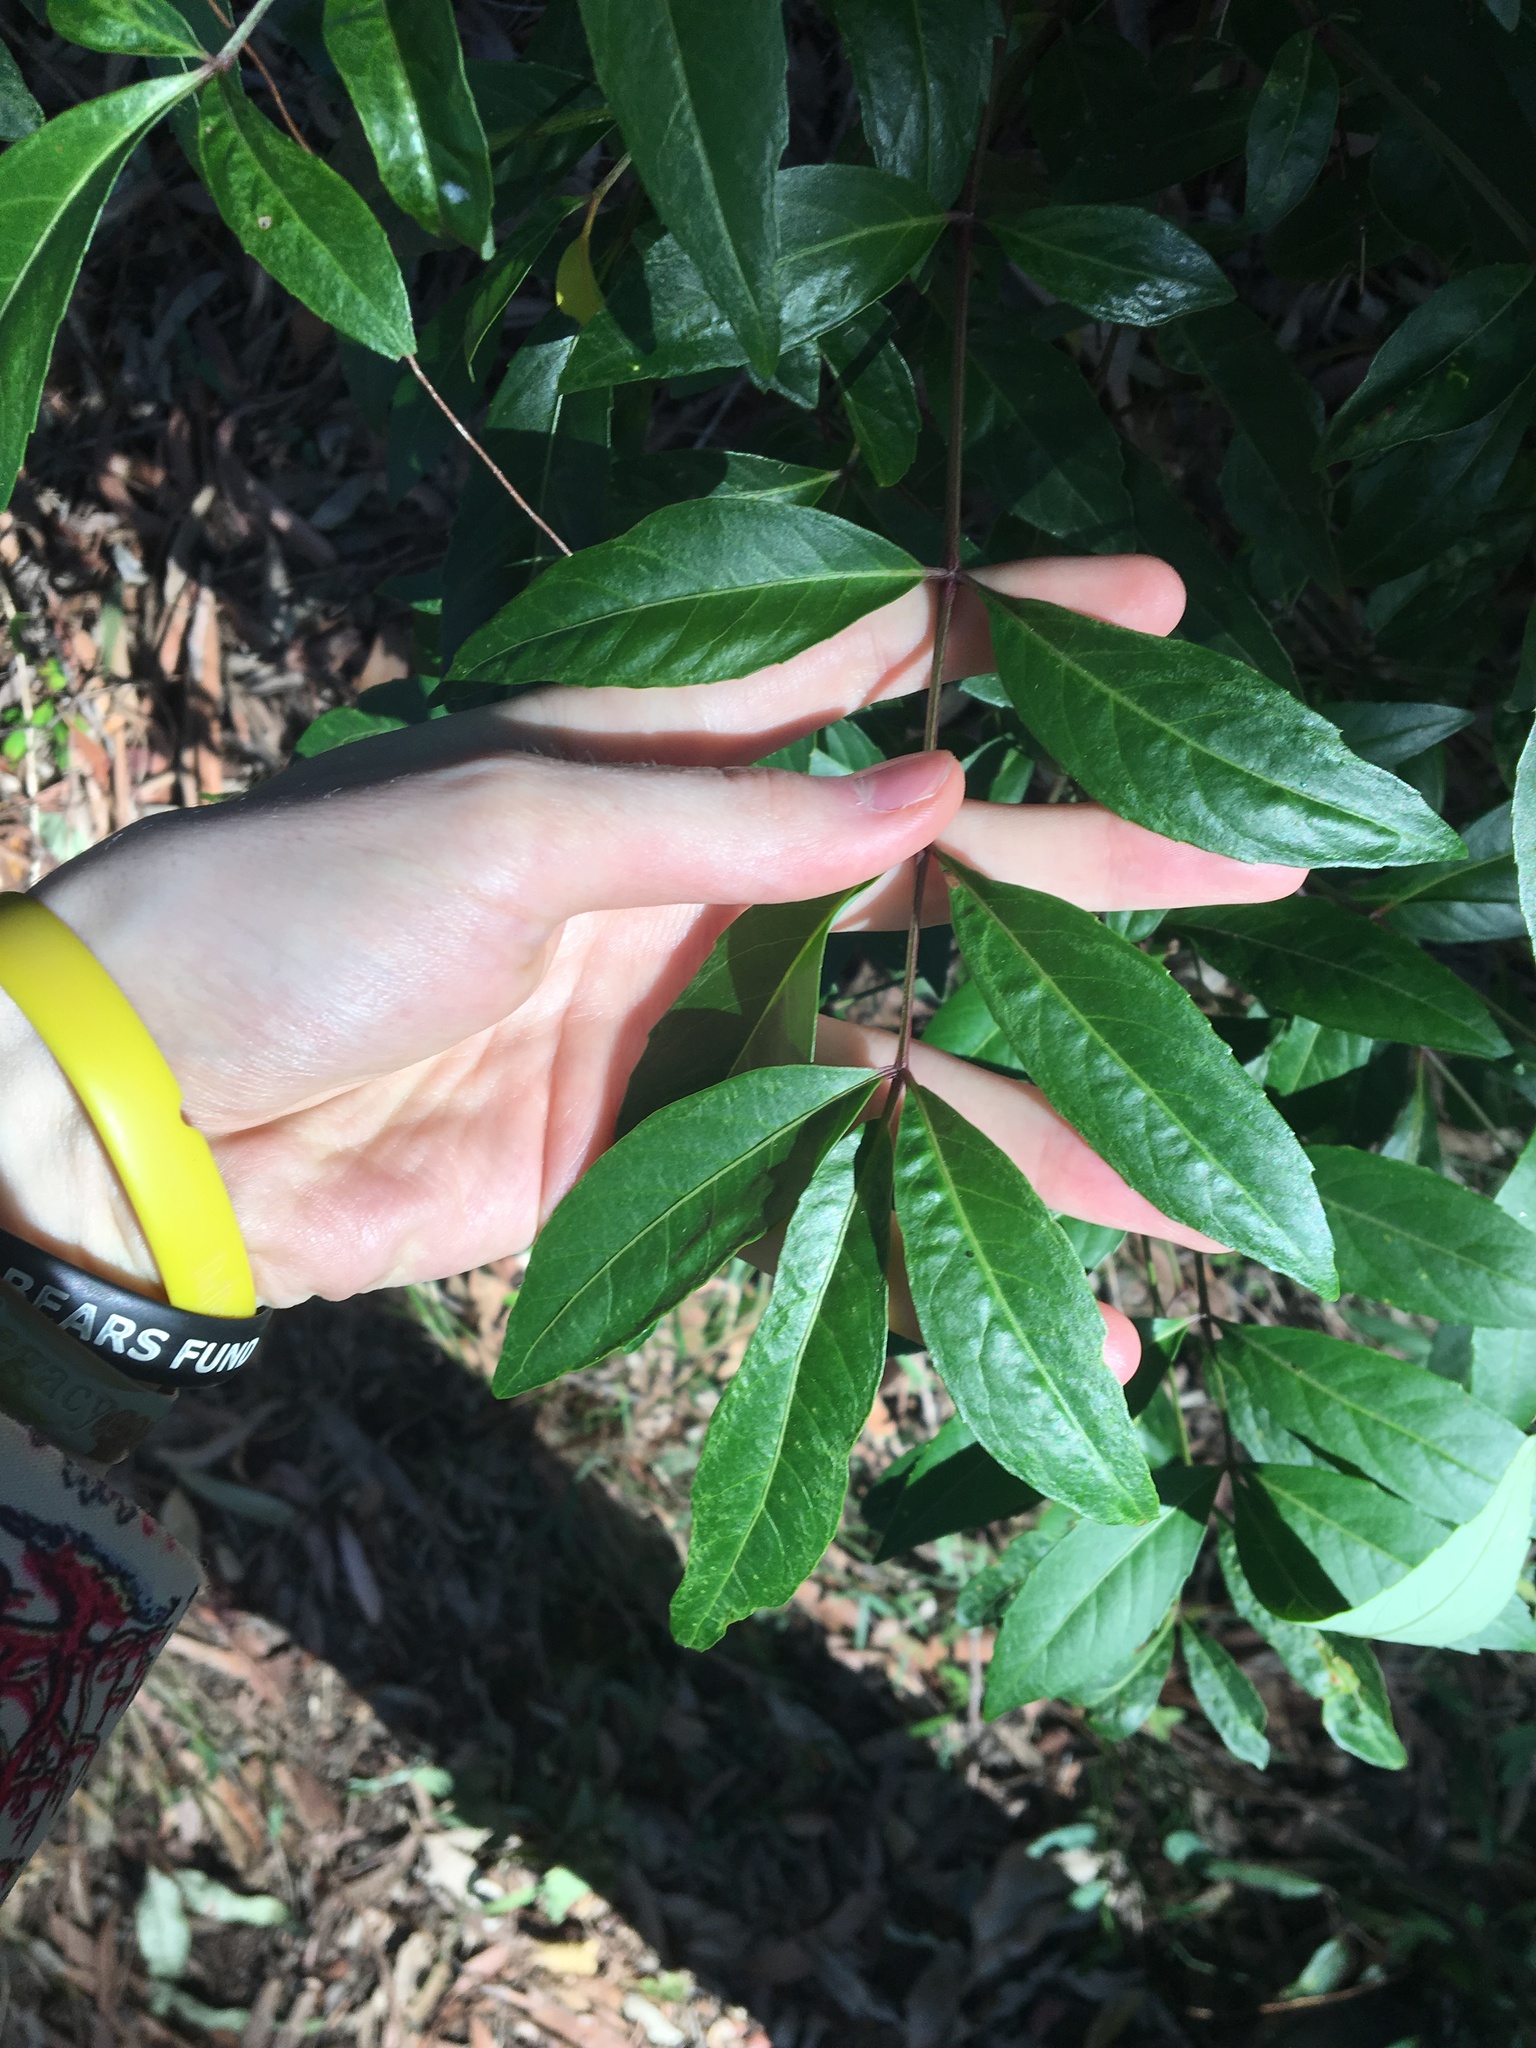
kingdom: Plantae
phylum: Tracheophyta
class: Magnoliopsida
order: Apiales
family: Araliaceae
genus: Polyscias
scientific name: Polyscias sambucifolia
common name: Elderberry-ash
